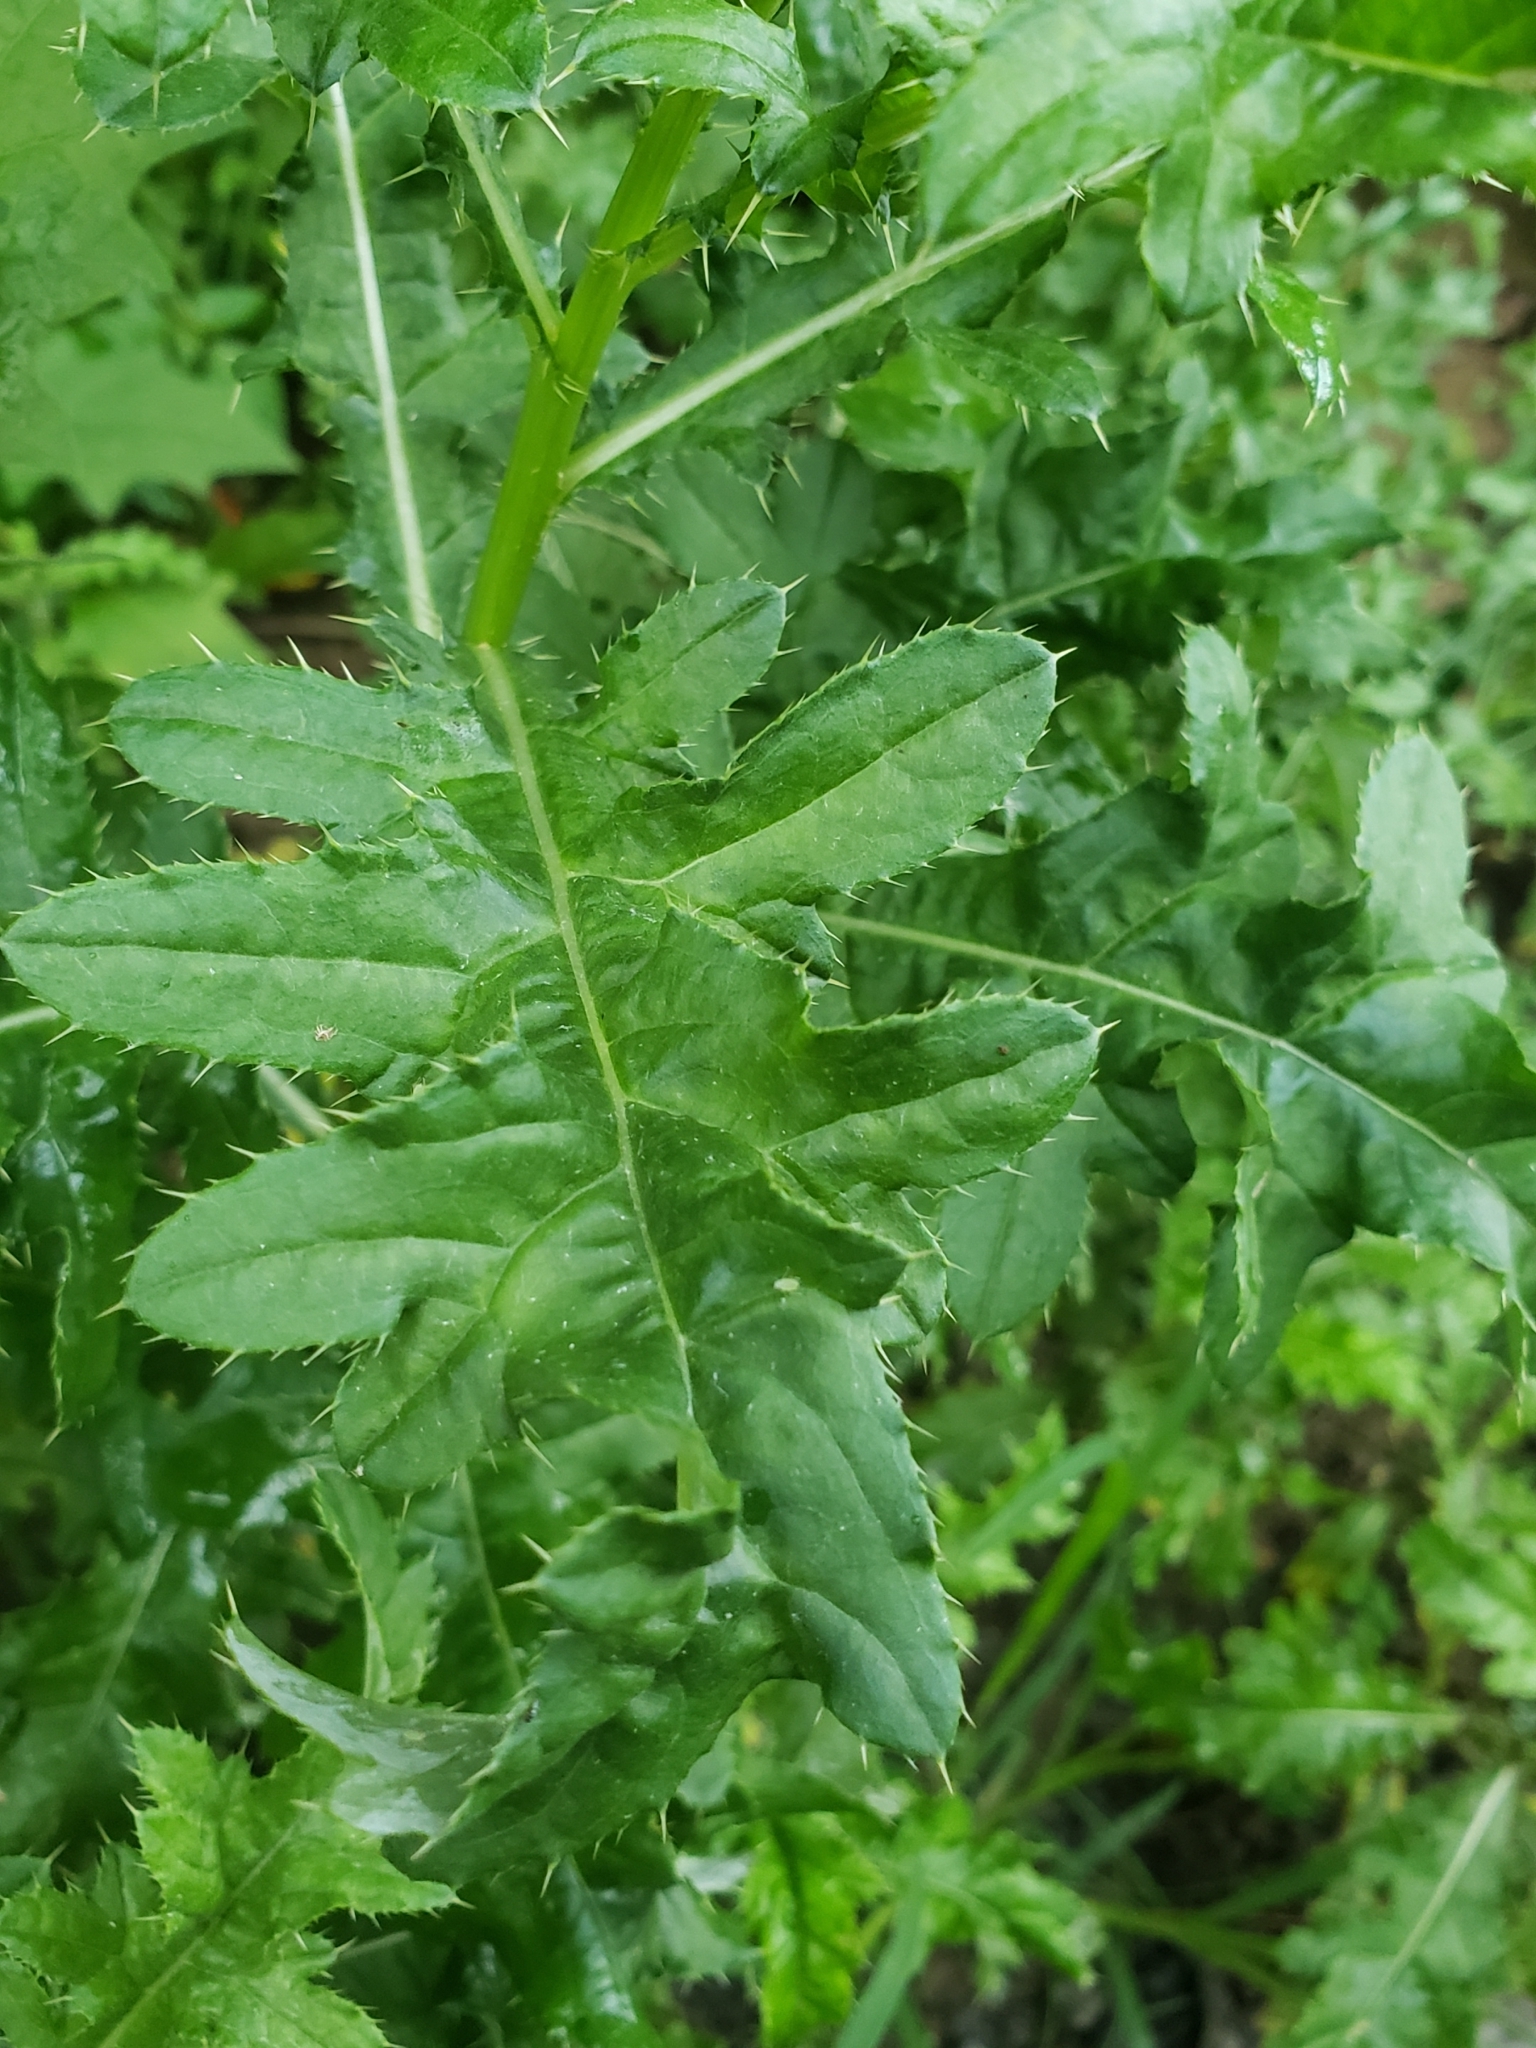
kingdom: Plantae
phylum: Tracheophyta
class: Magnoliopsida
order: Asterales
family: Asteraceae
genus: Cirsium
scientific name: Cirsium arvense
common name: Creeping thistle
